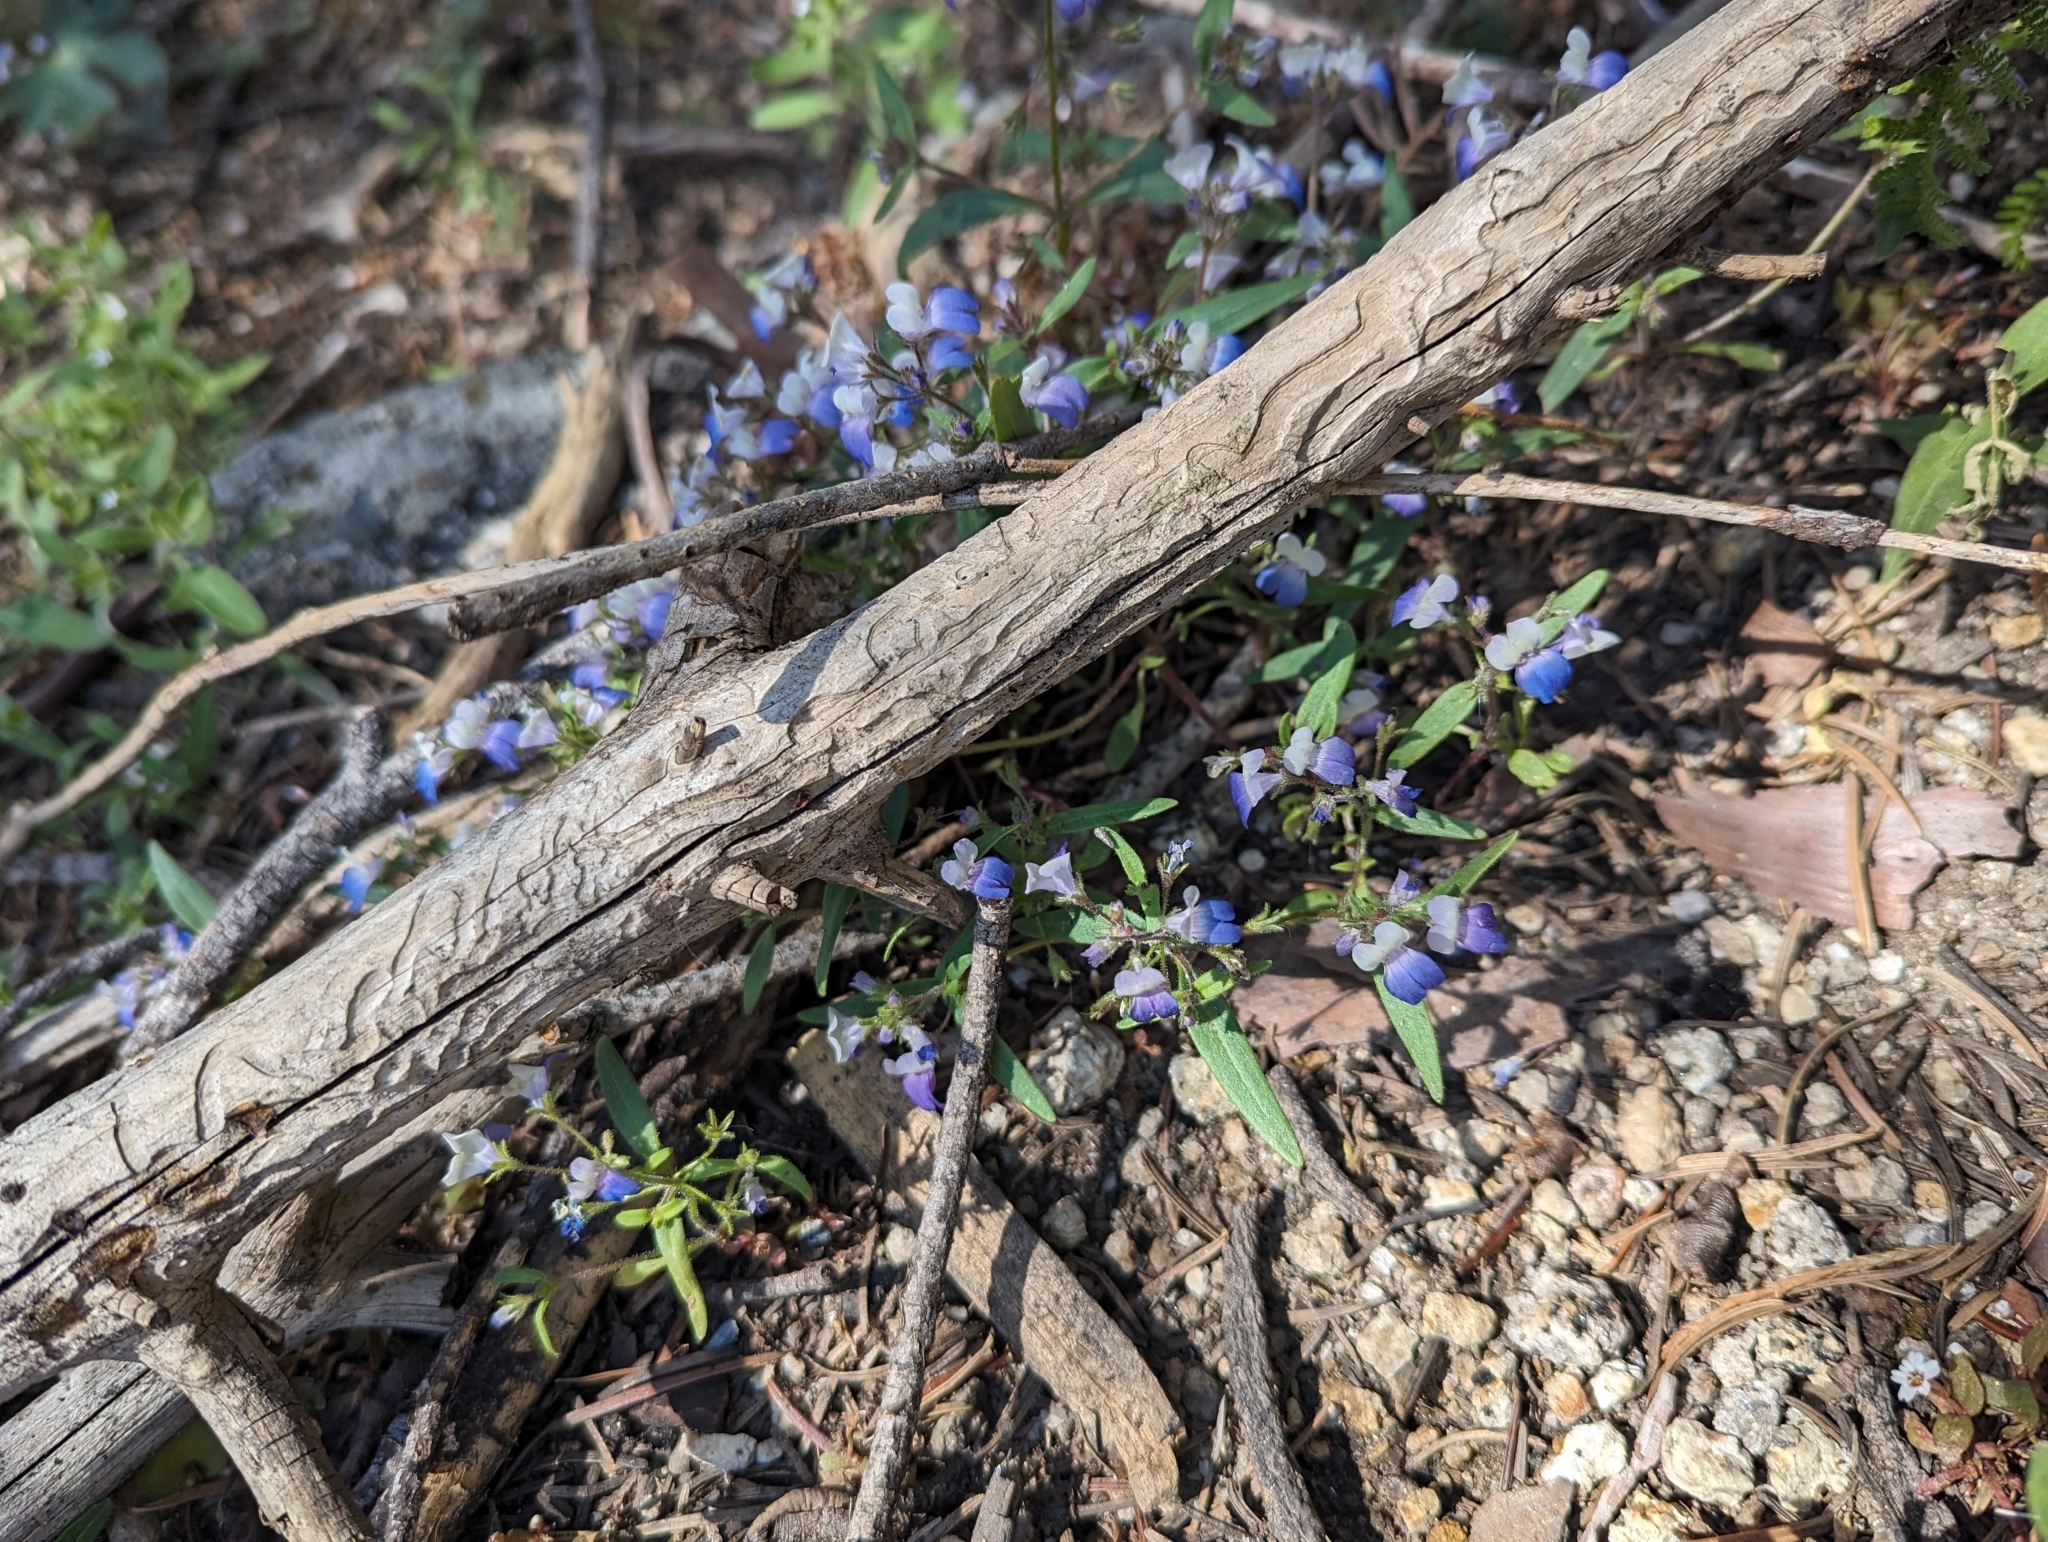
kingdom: Plantae
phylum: Tracheophyta
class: Magnoliopsida
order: Lamiales
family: Plantaginaceae
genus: Collinsia
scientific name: Collinsia torreyi
